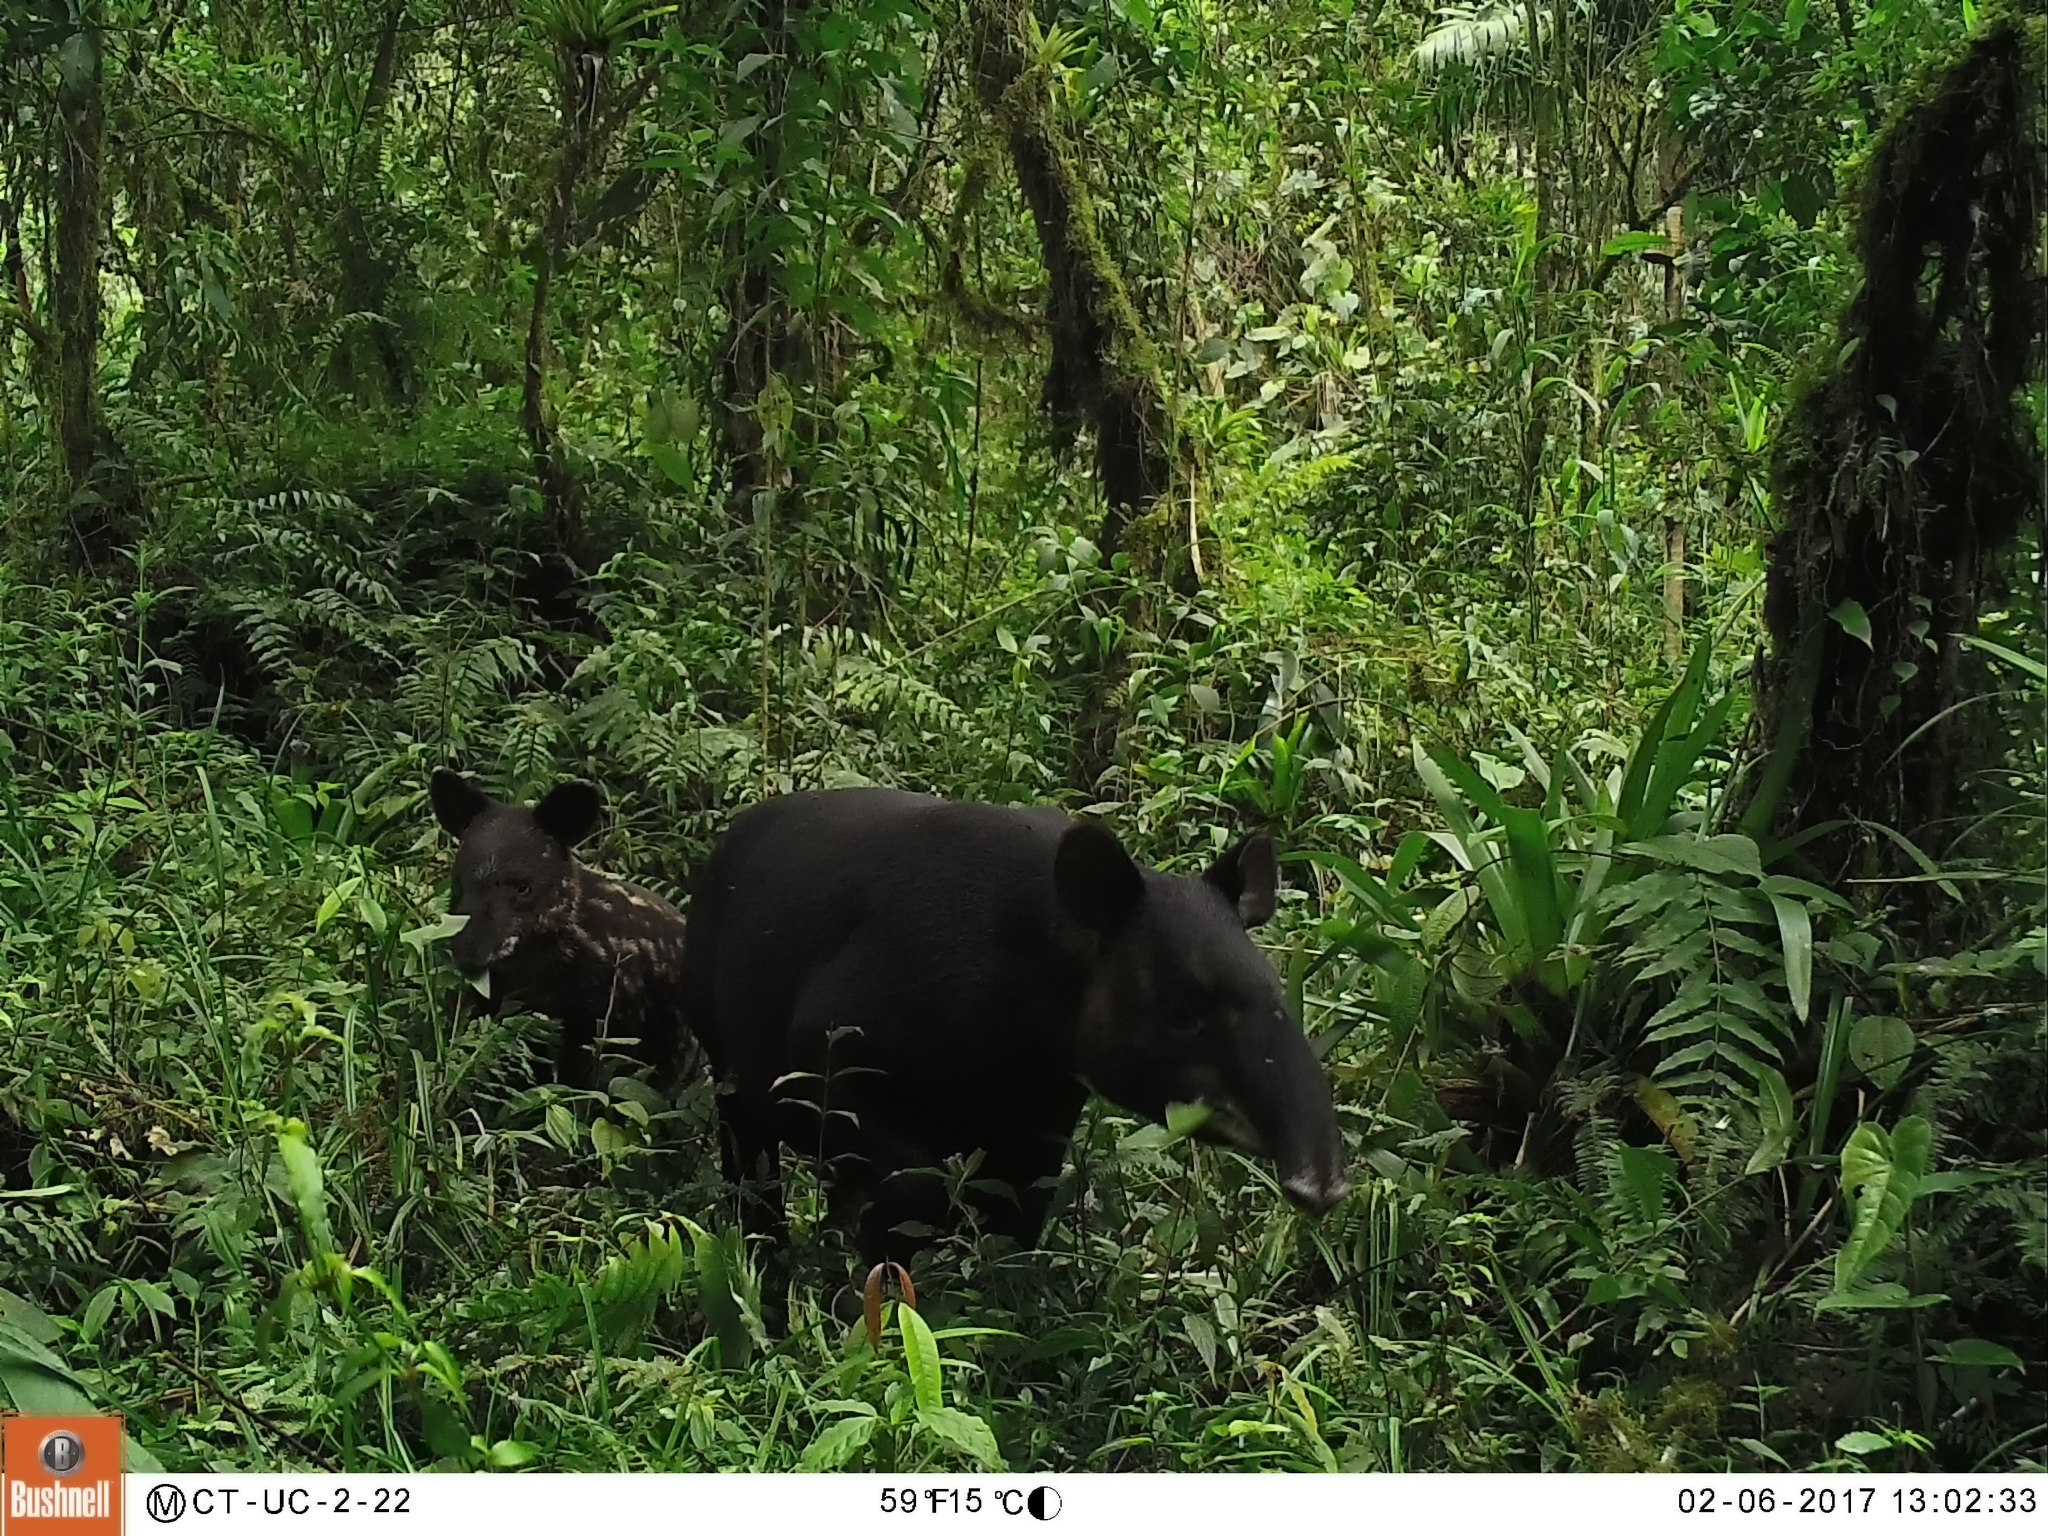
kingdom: Animalia
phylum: Chordata
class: Mammalia
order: Perissodactyla
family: Tapiridae
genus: Tapirus
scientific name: Tapirus pinchaque
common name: Mountain tapir
